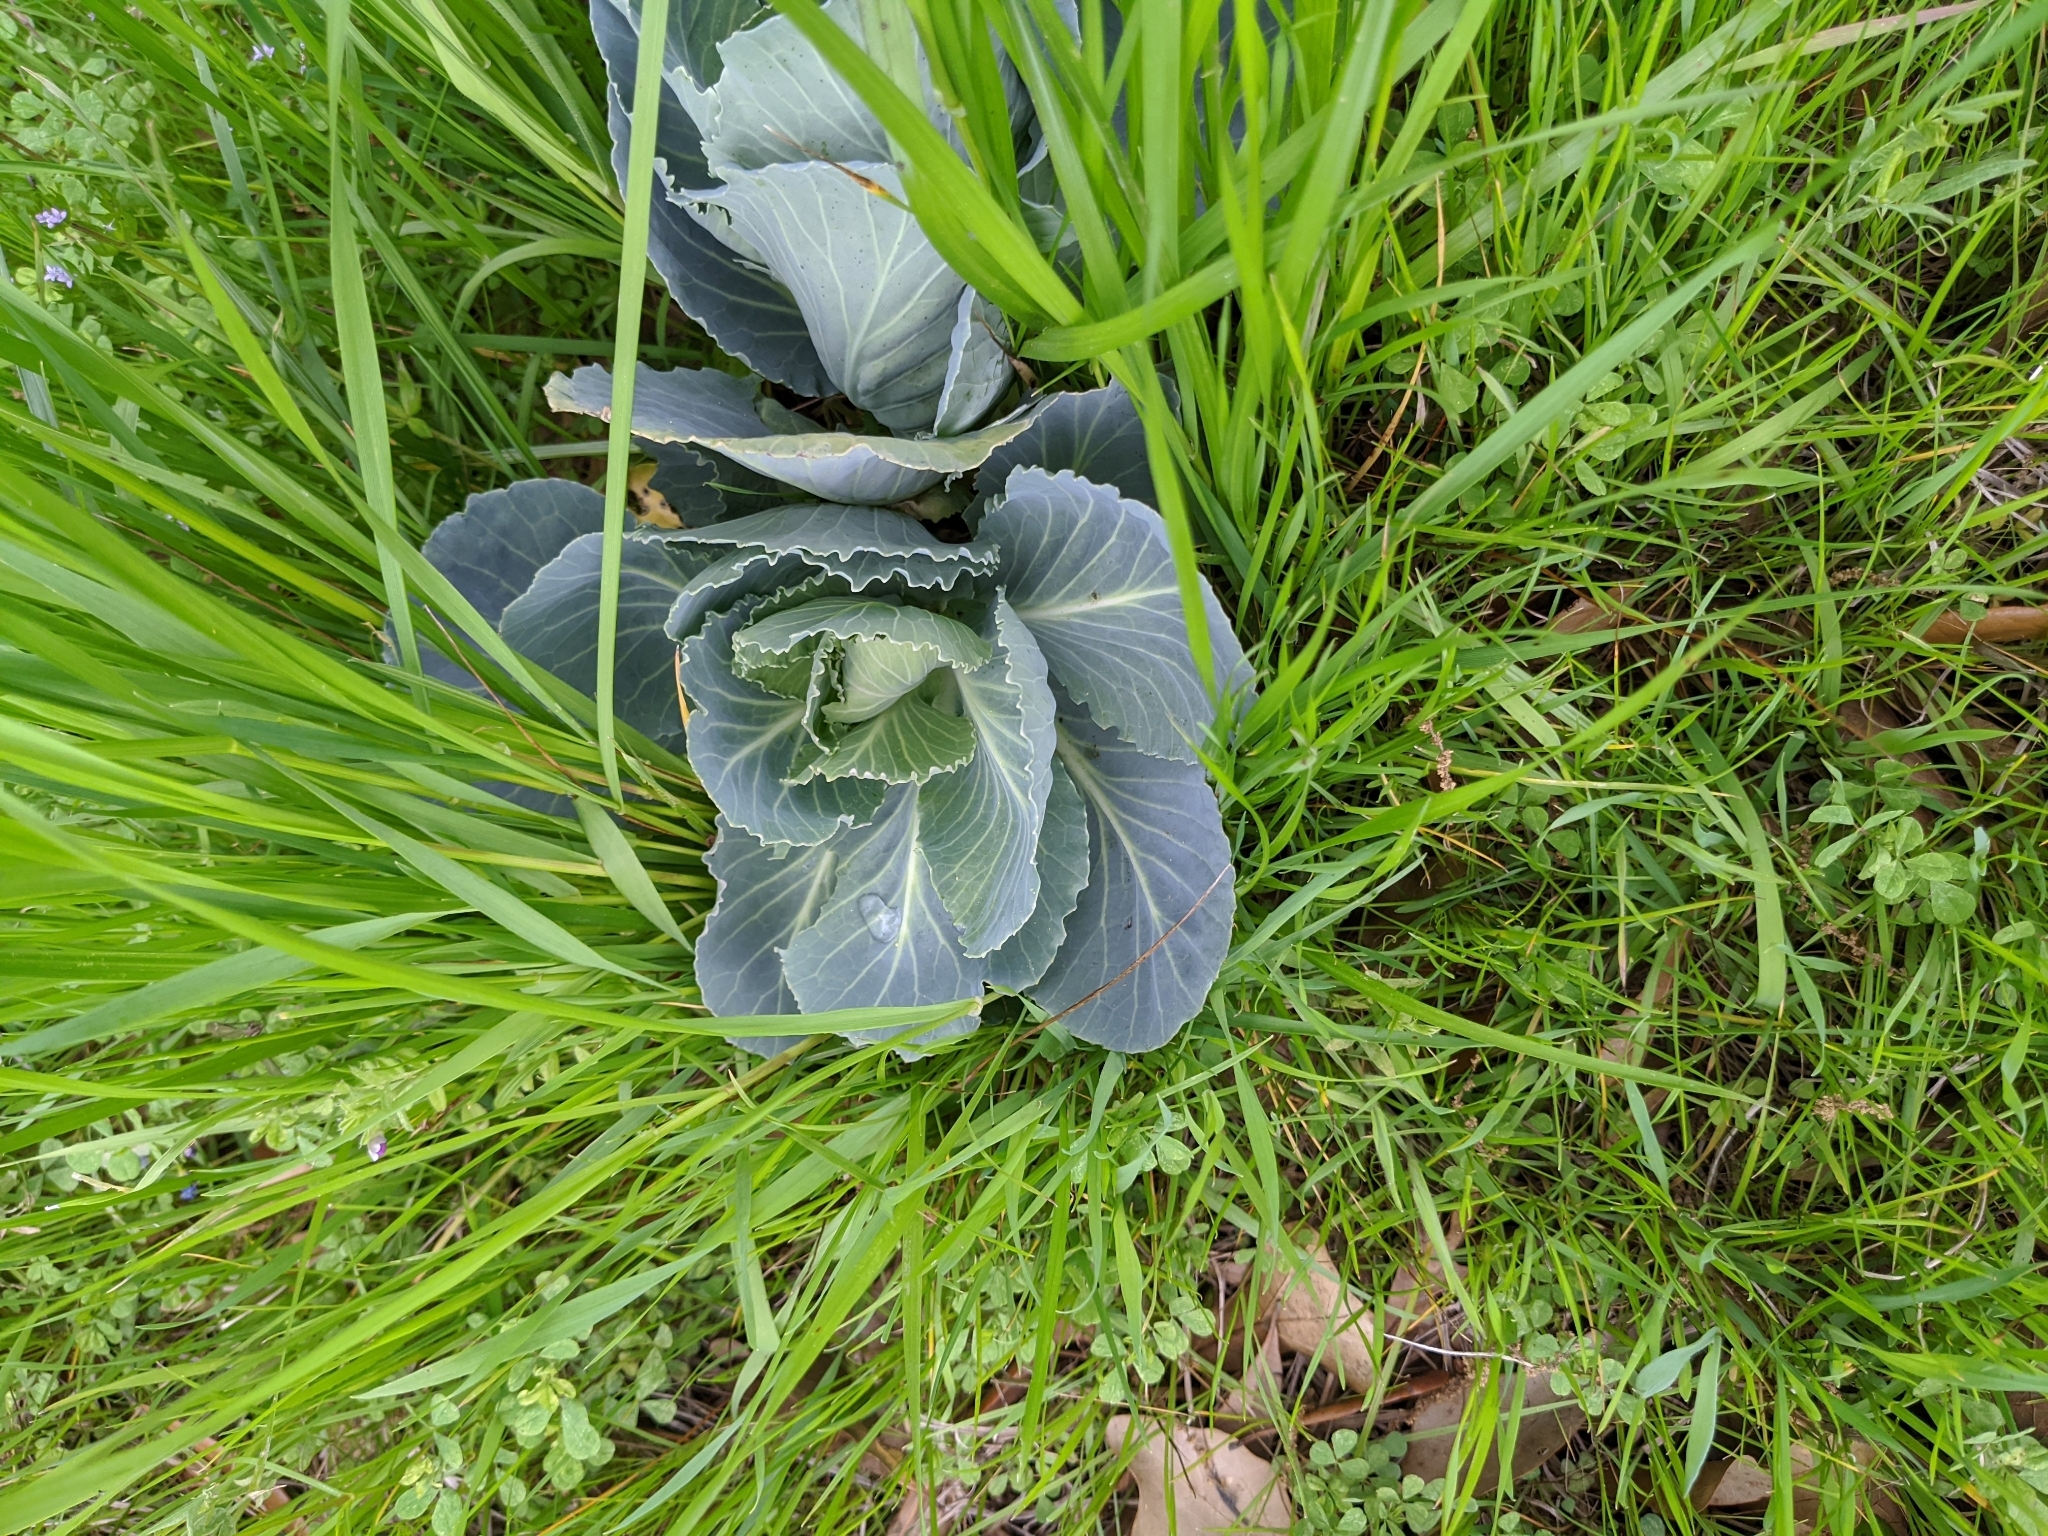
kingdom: Plantae
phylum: Tracheophyta
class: Magnoliopsida
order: Brassicales
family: Brassicaceae
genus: Brassica
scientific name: Brassica oleracea
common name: Cabbage
